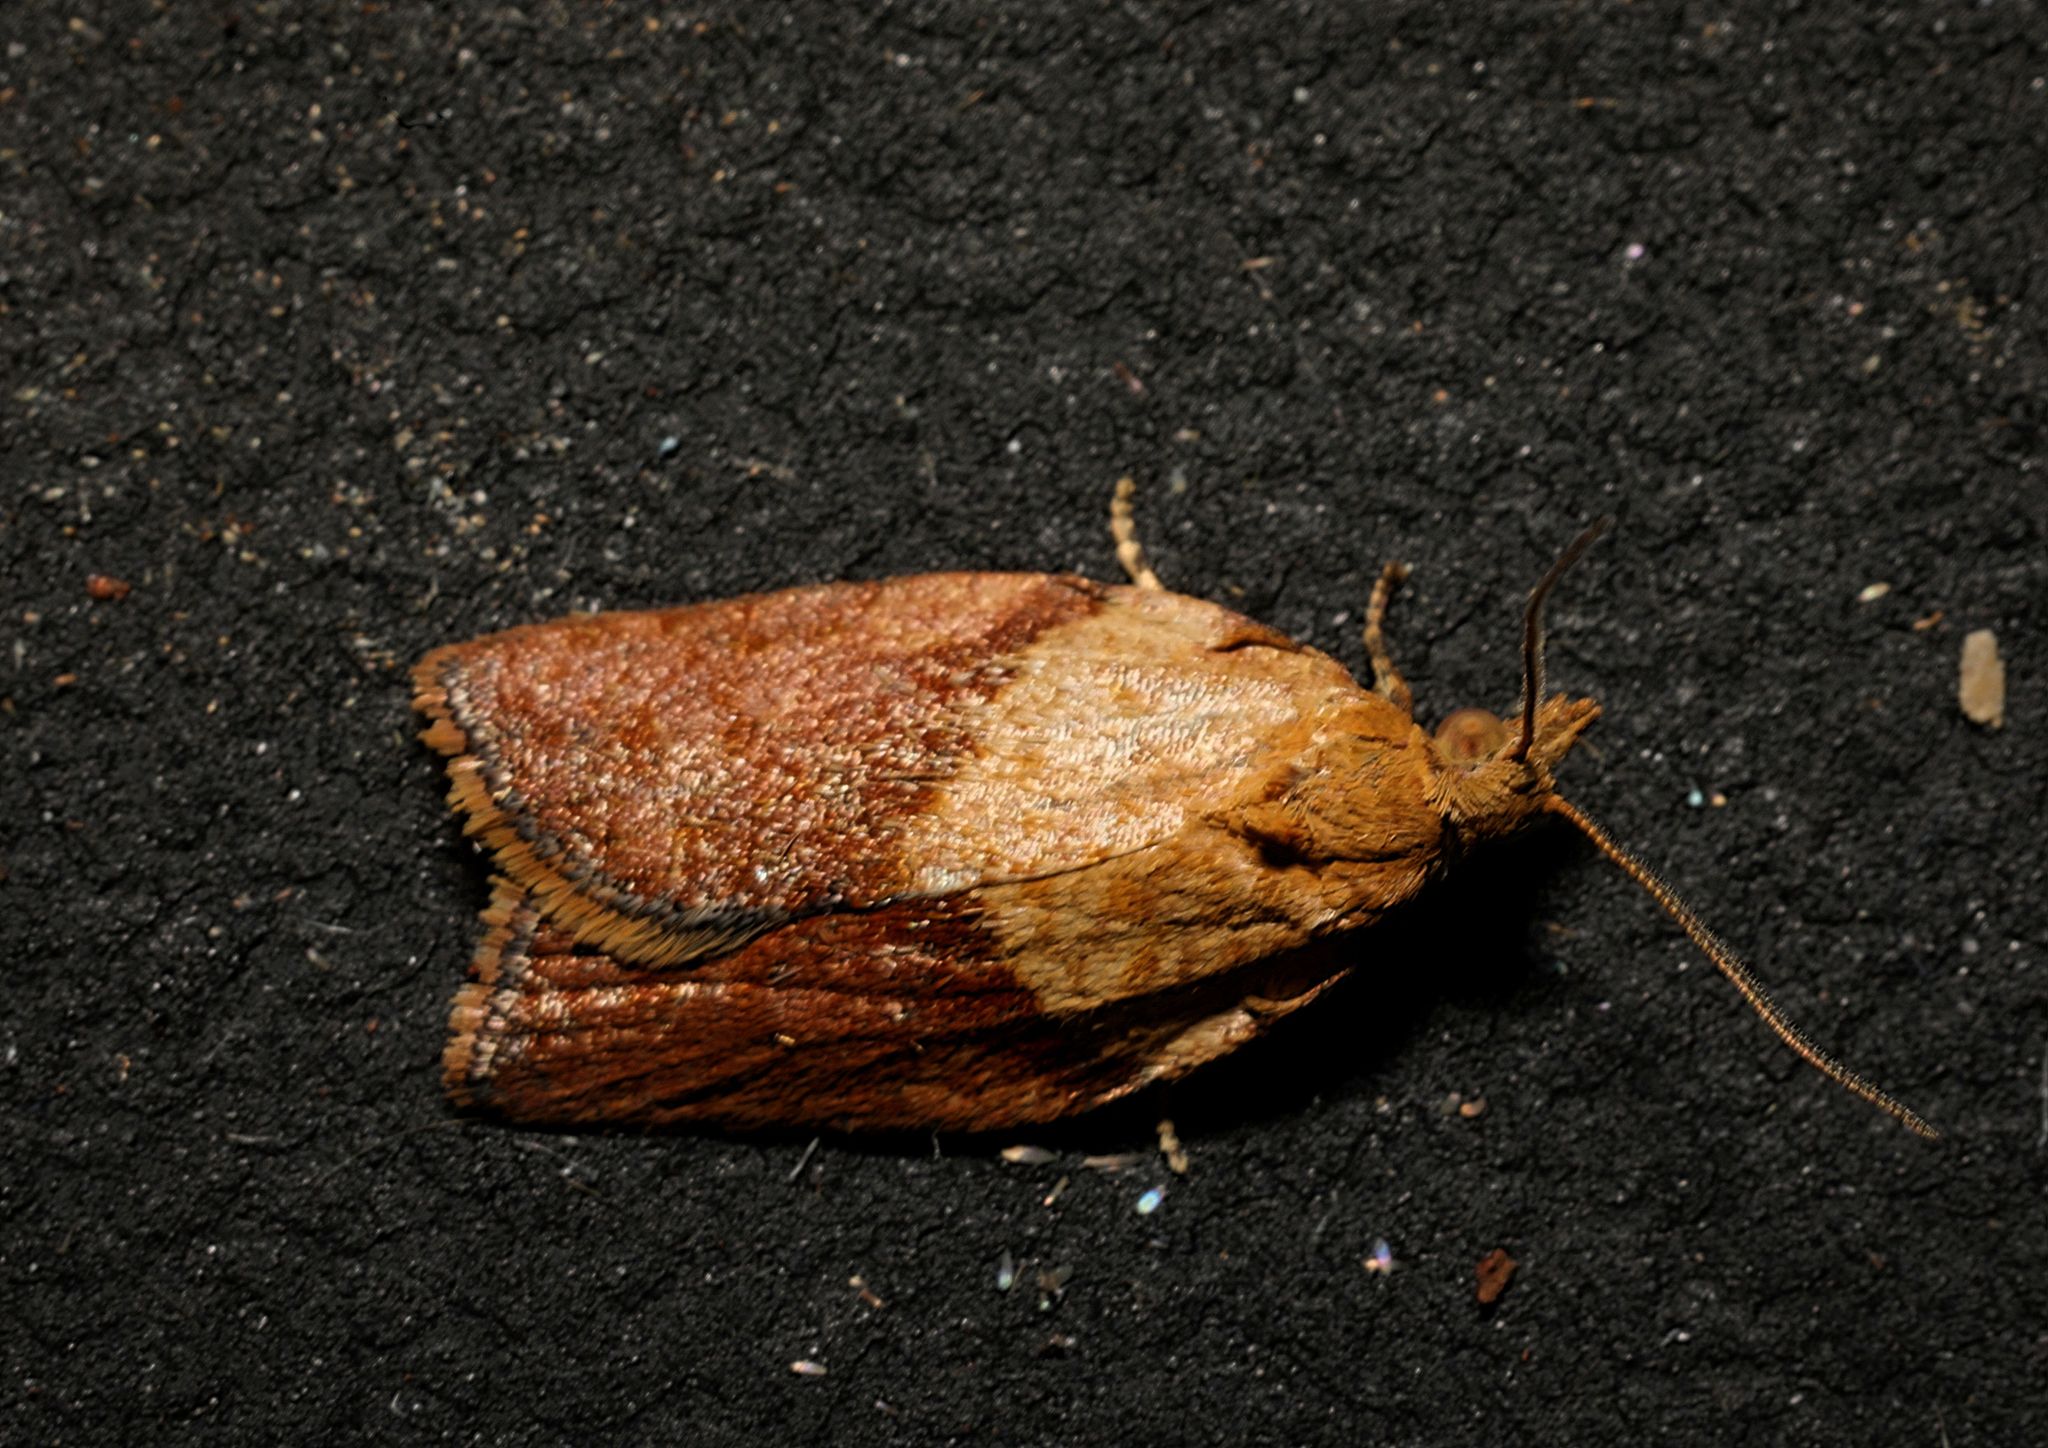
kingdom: Animalia
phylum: Arthropoda
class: Insecta
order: Lepidoptera
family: Tortricidae
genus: Epiphyas
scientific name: Epiphyas postvittana
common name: Light brown apple moth
